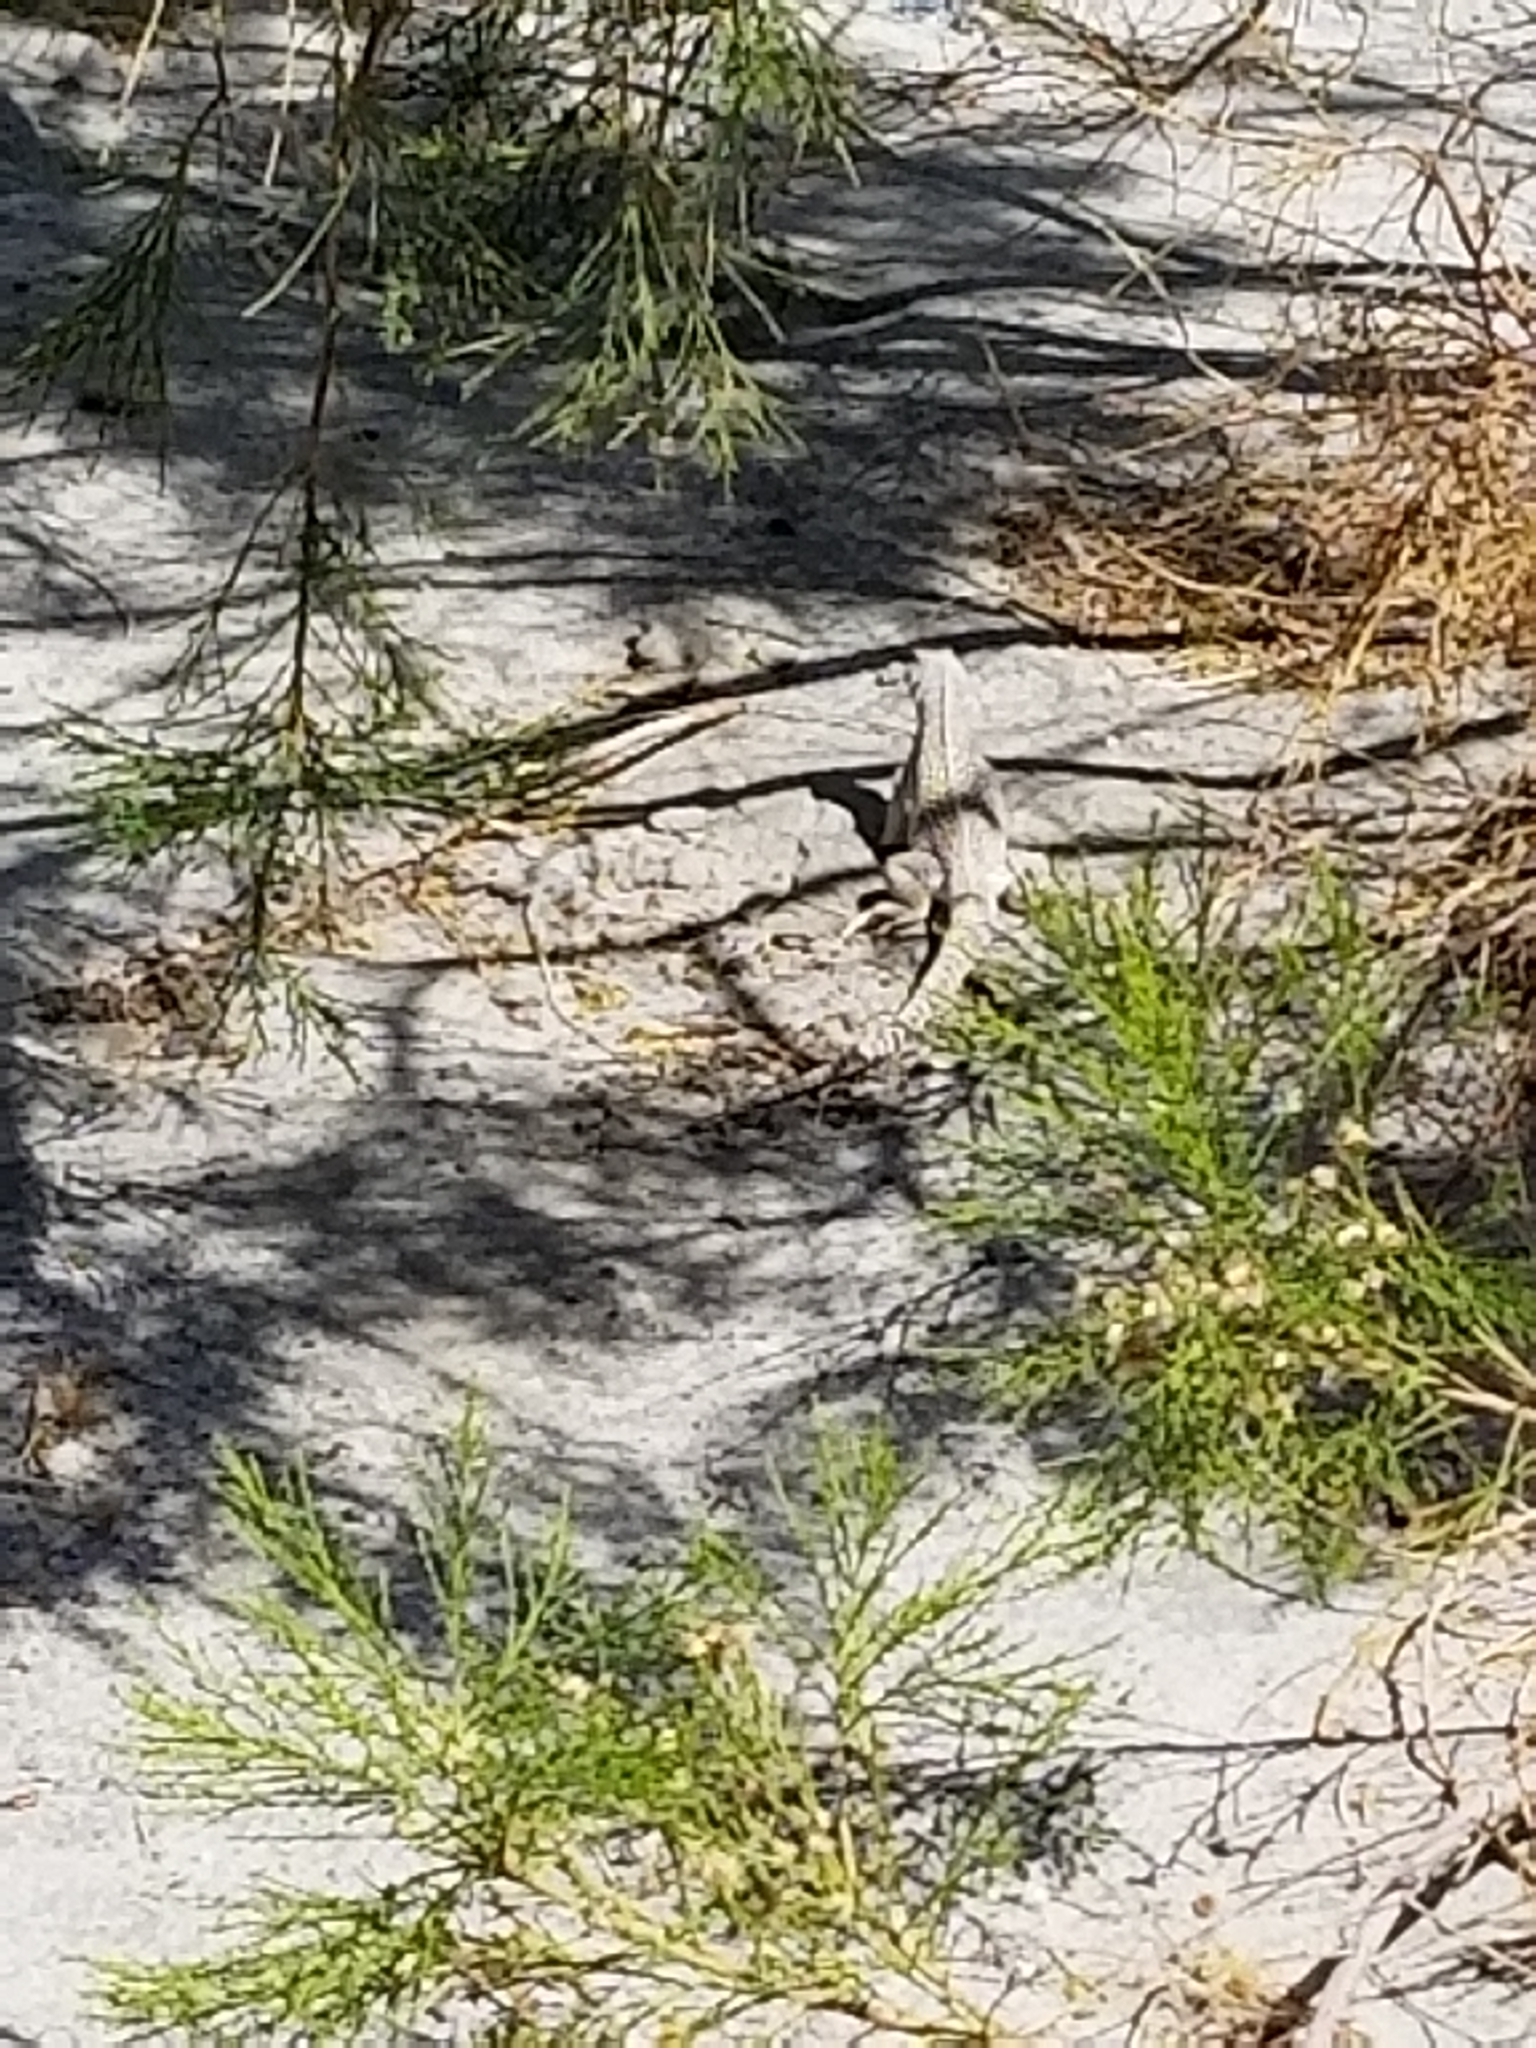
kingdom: Animalia
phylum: Chordata
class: Squamata
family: Iguanidae
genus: Dipsosaurus
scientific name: Dipsosaurus dorsalis
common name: Desert iguana
